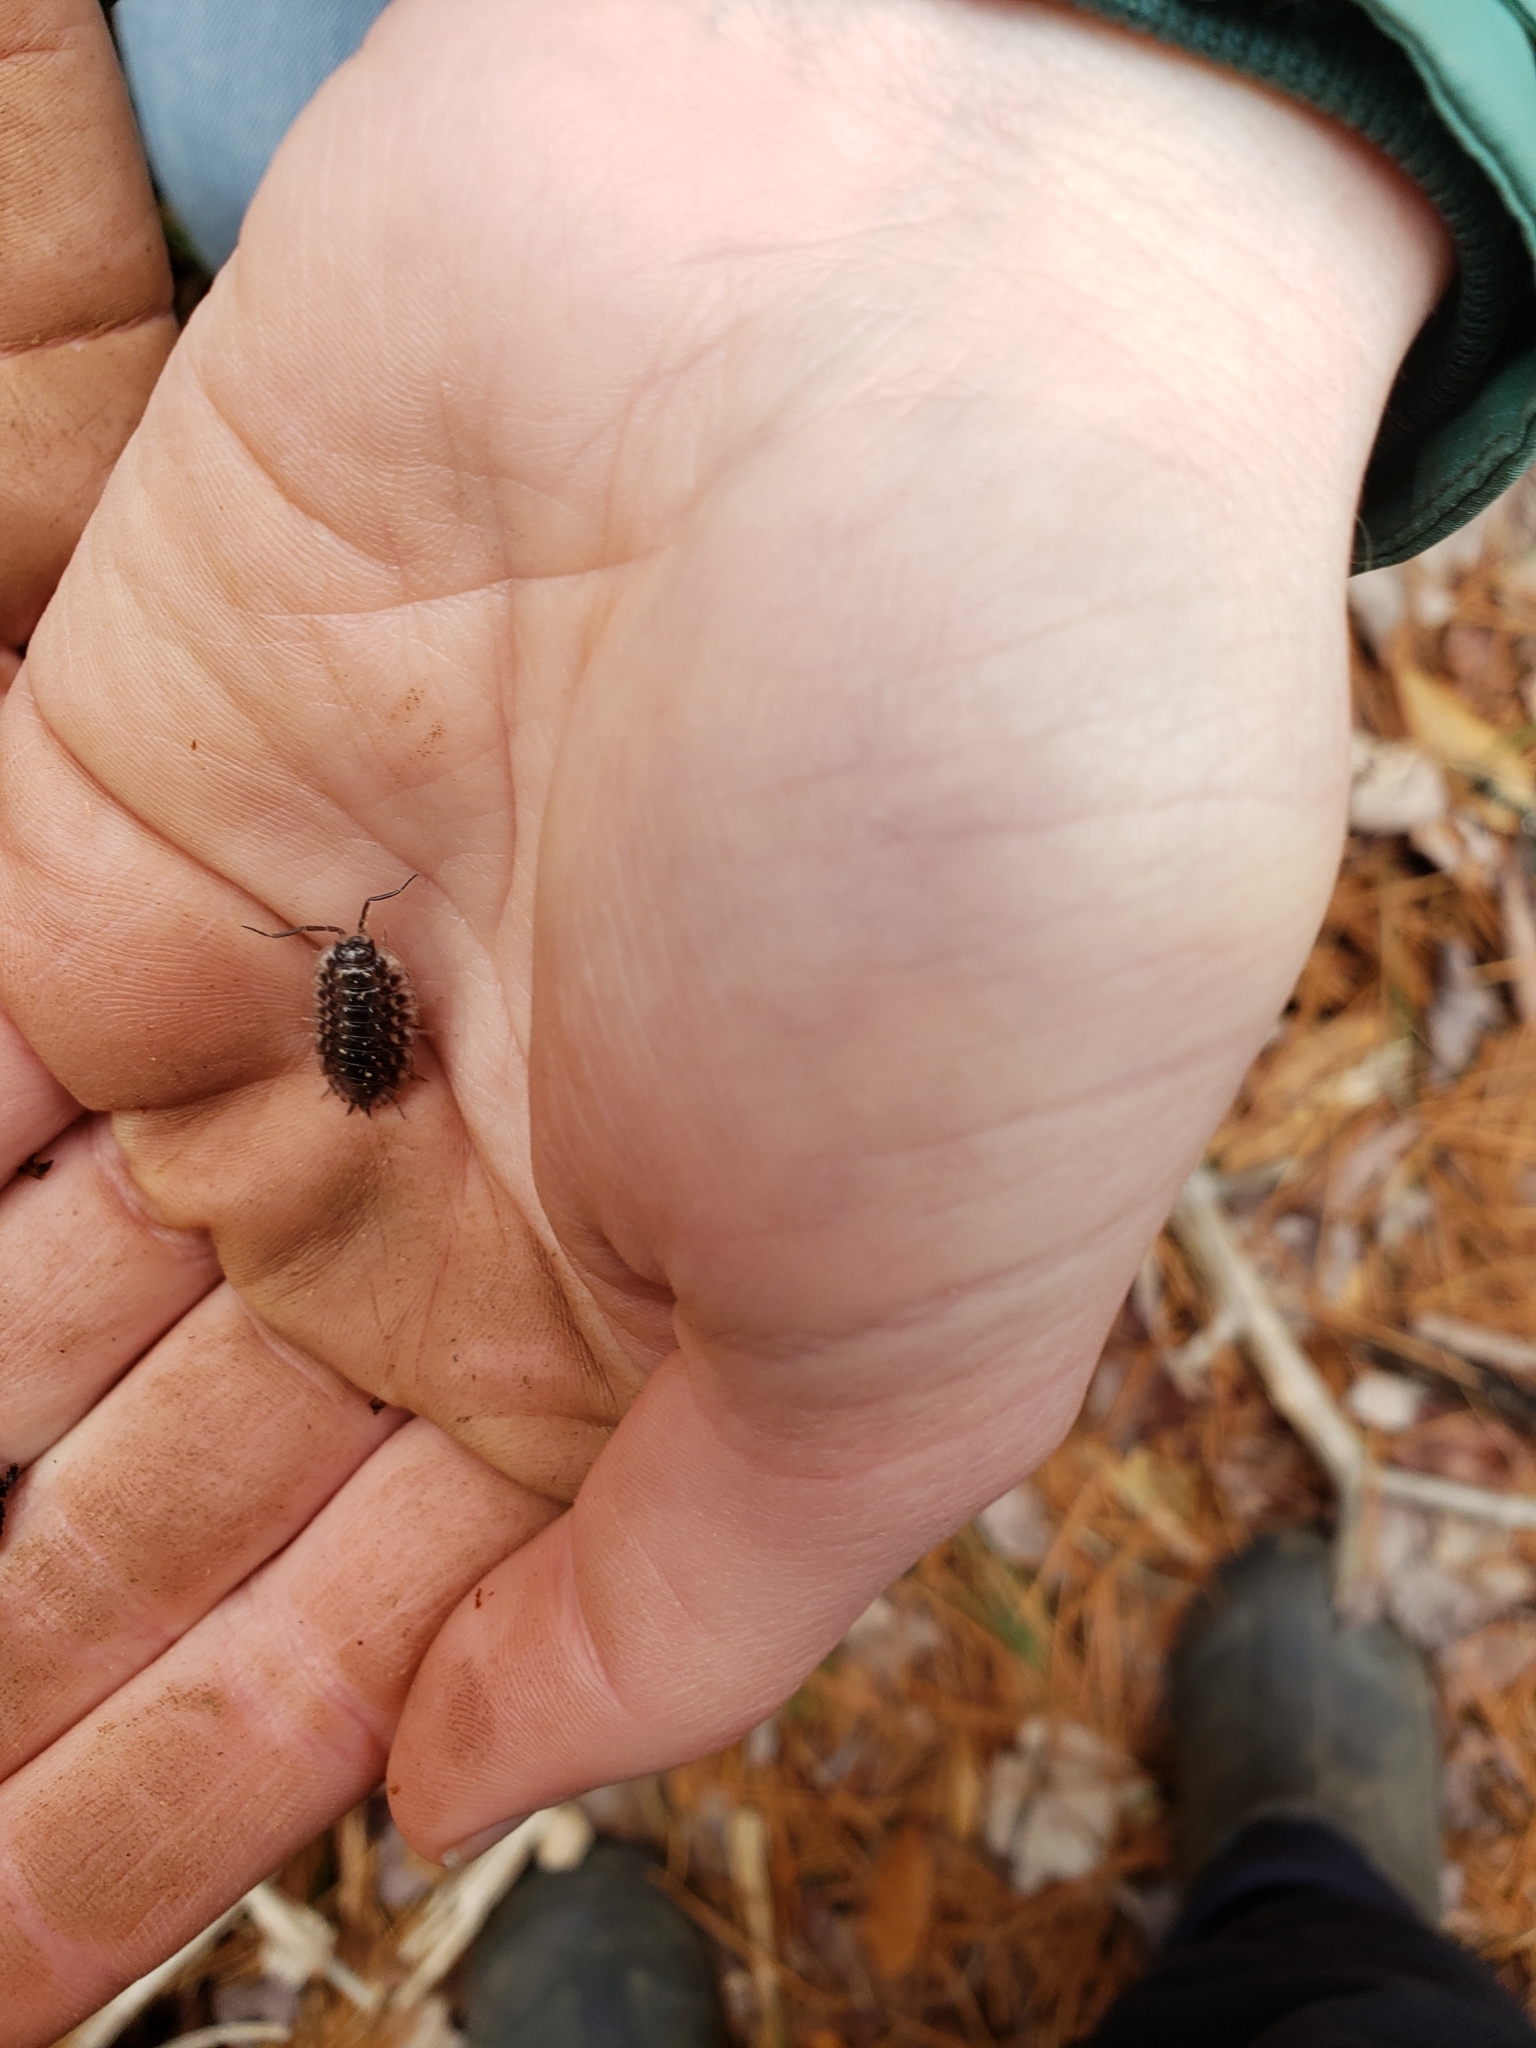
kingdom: Animalia
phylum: Arthropoda
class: Malacostraca
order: Isopoda
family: Oniscidae
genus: Oniscus
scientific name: Oniscus asellus
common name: Common shiny woodlouse
